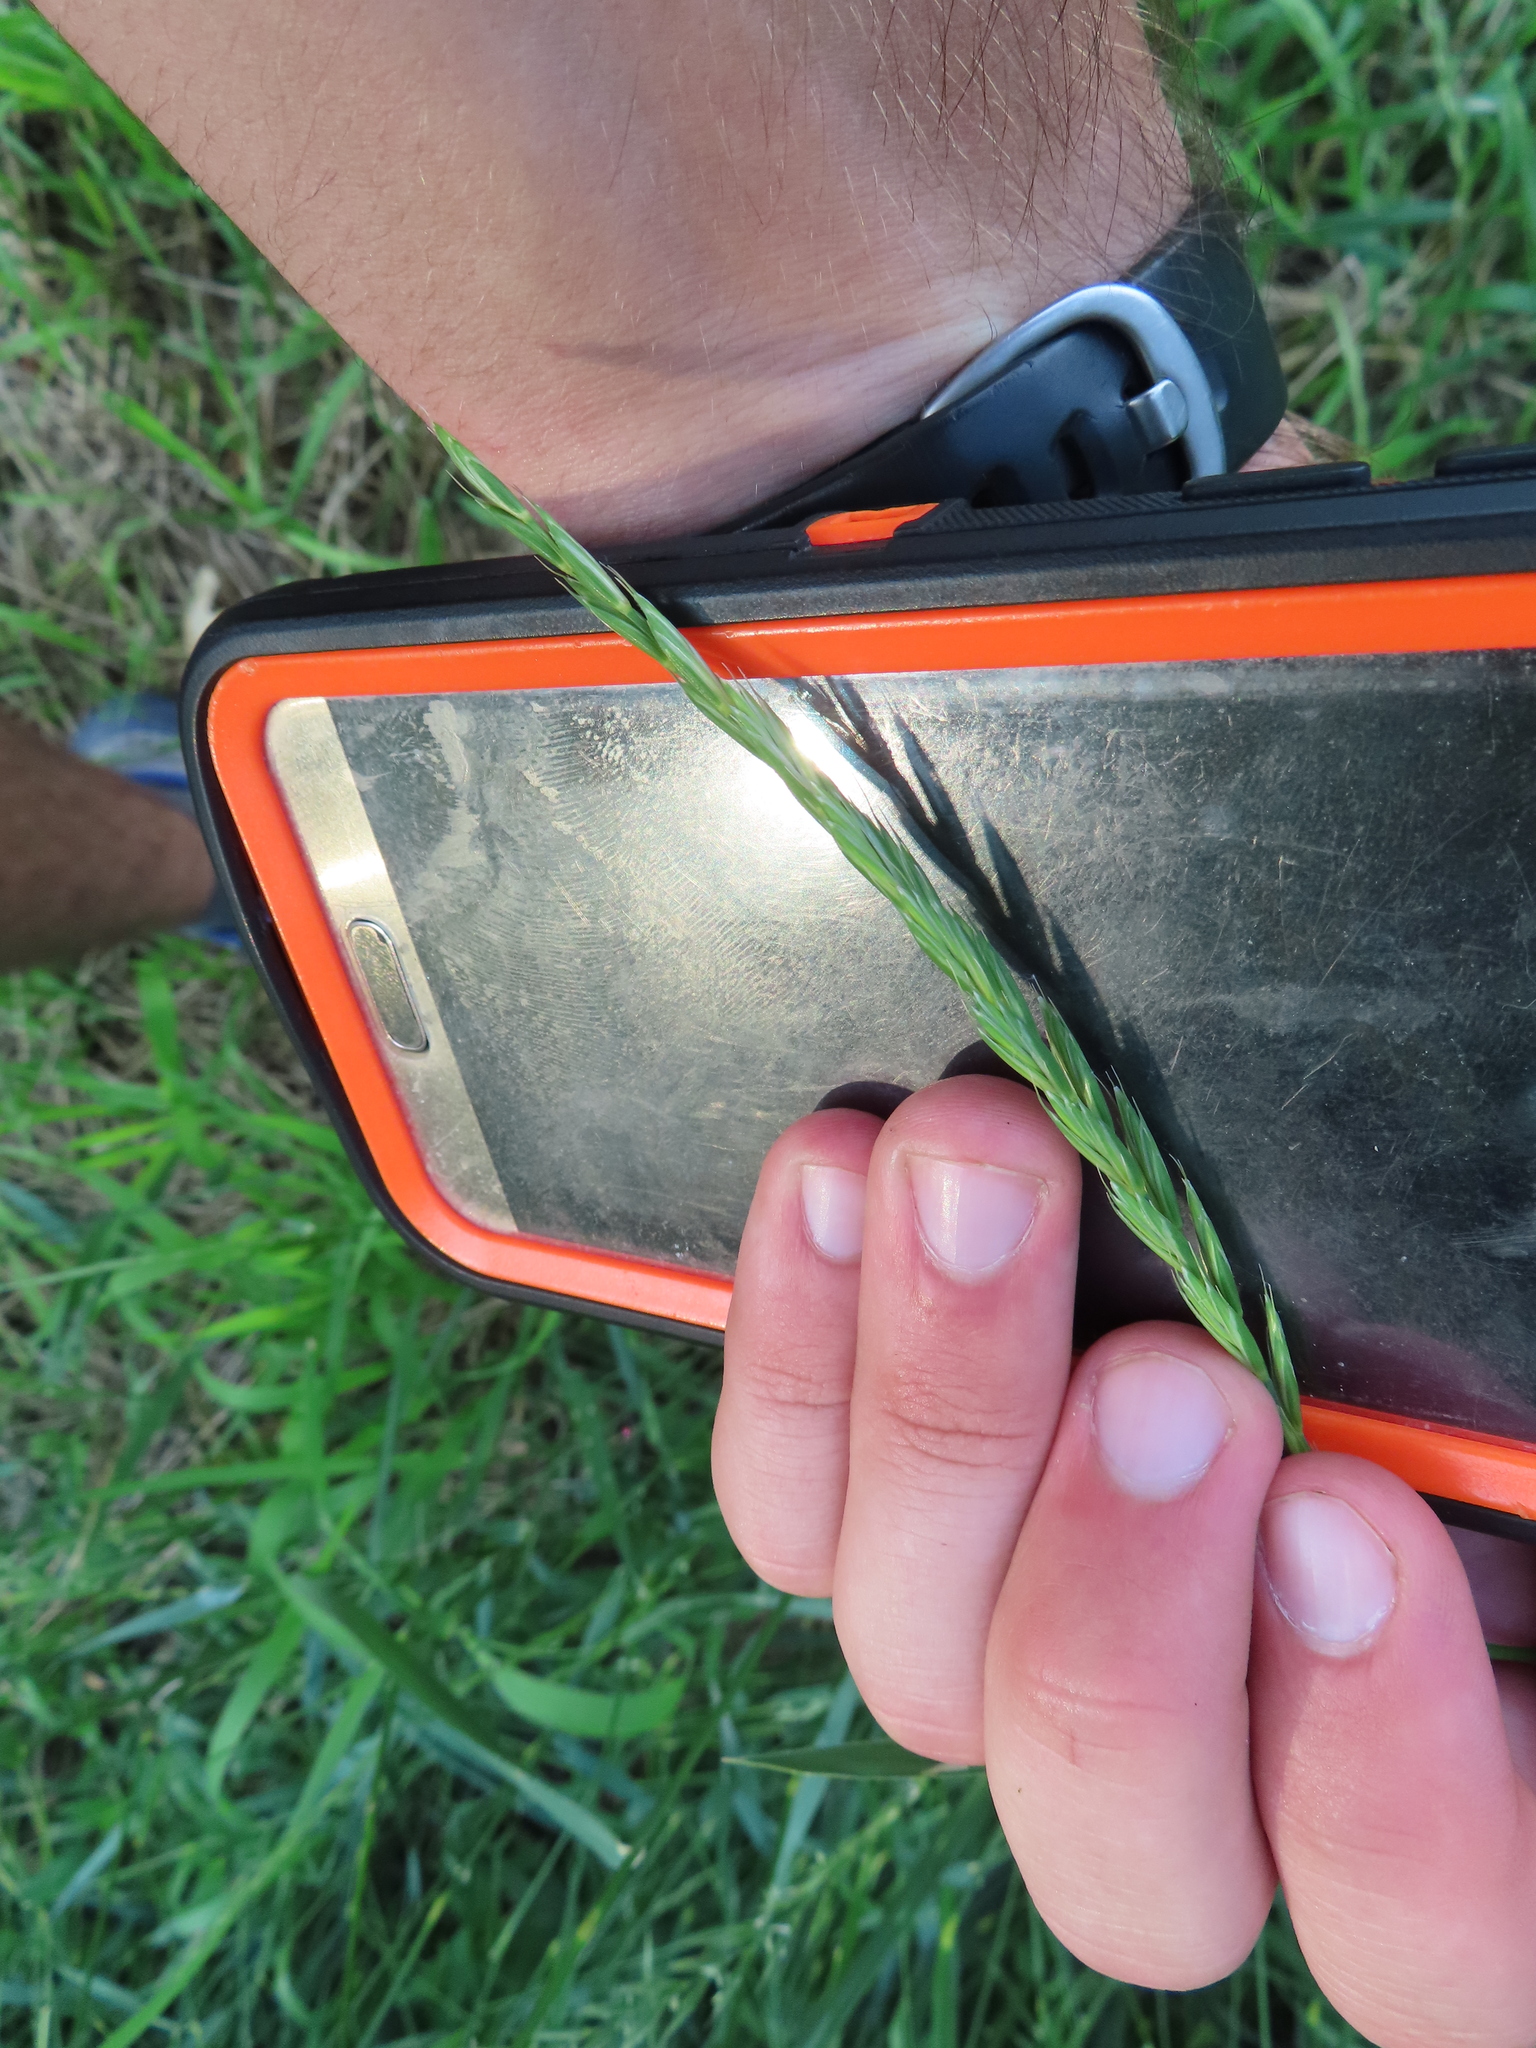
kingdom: Plantae
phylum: Tracheophyta
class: Liliopsida
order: Poales
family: Poaceae
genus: Elymus
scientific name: Elymus repens
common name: Quackgrass
